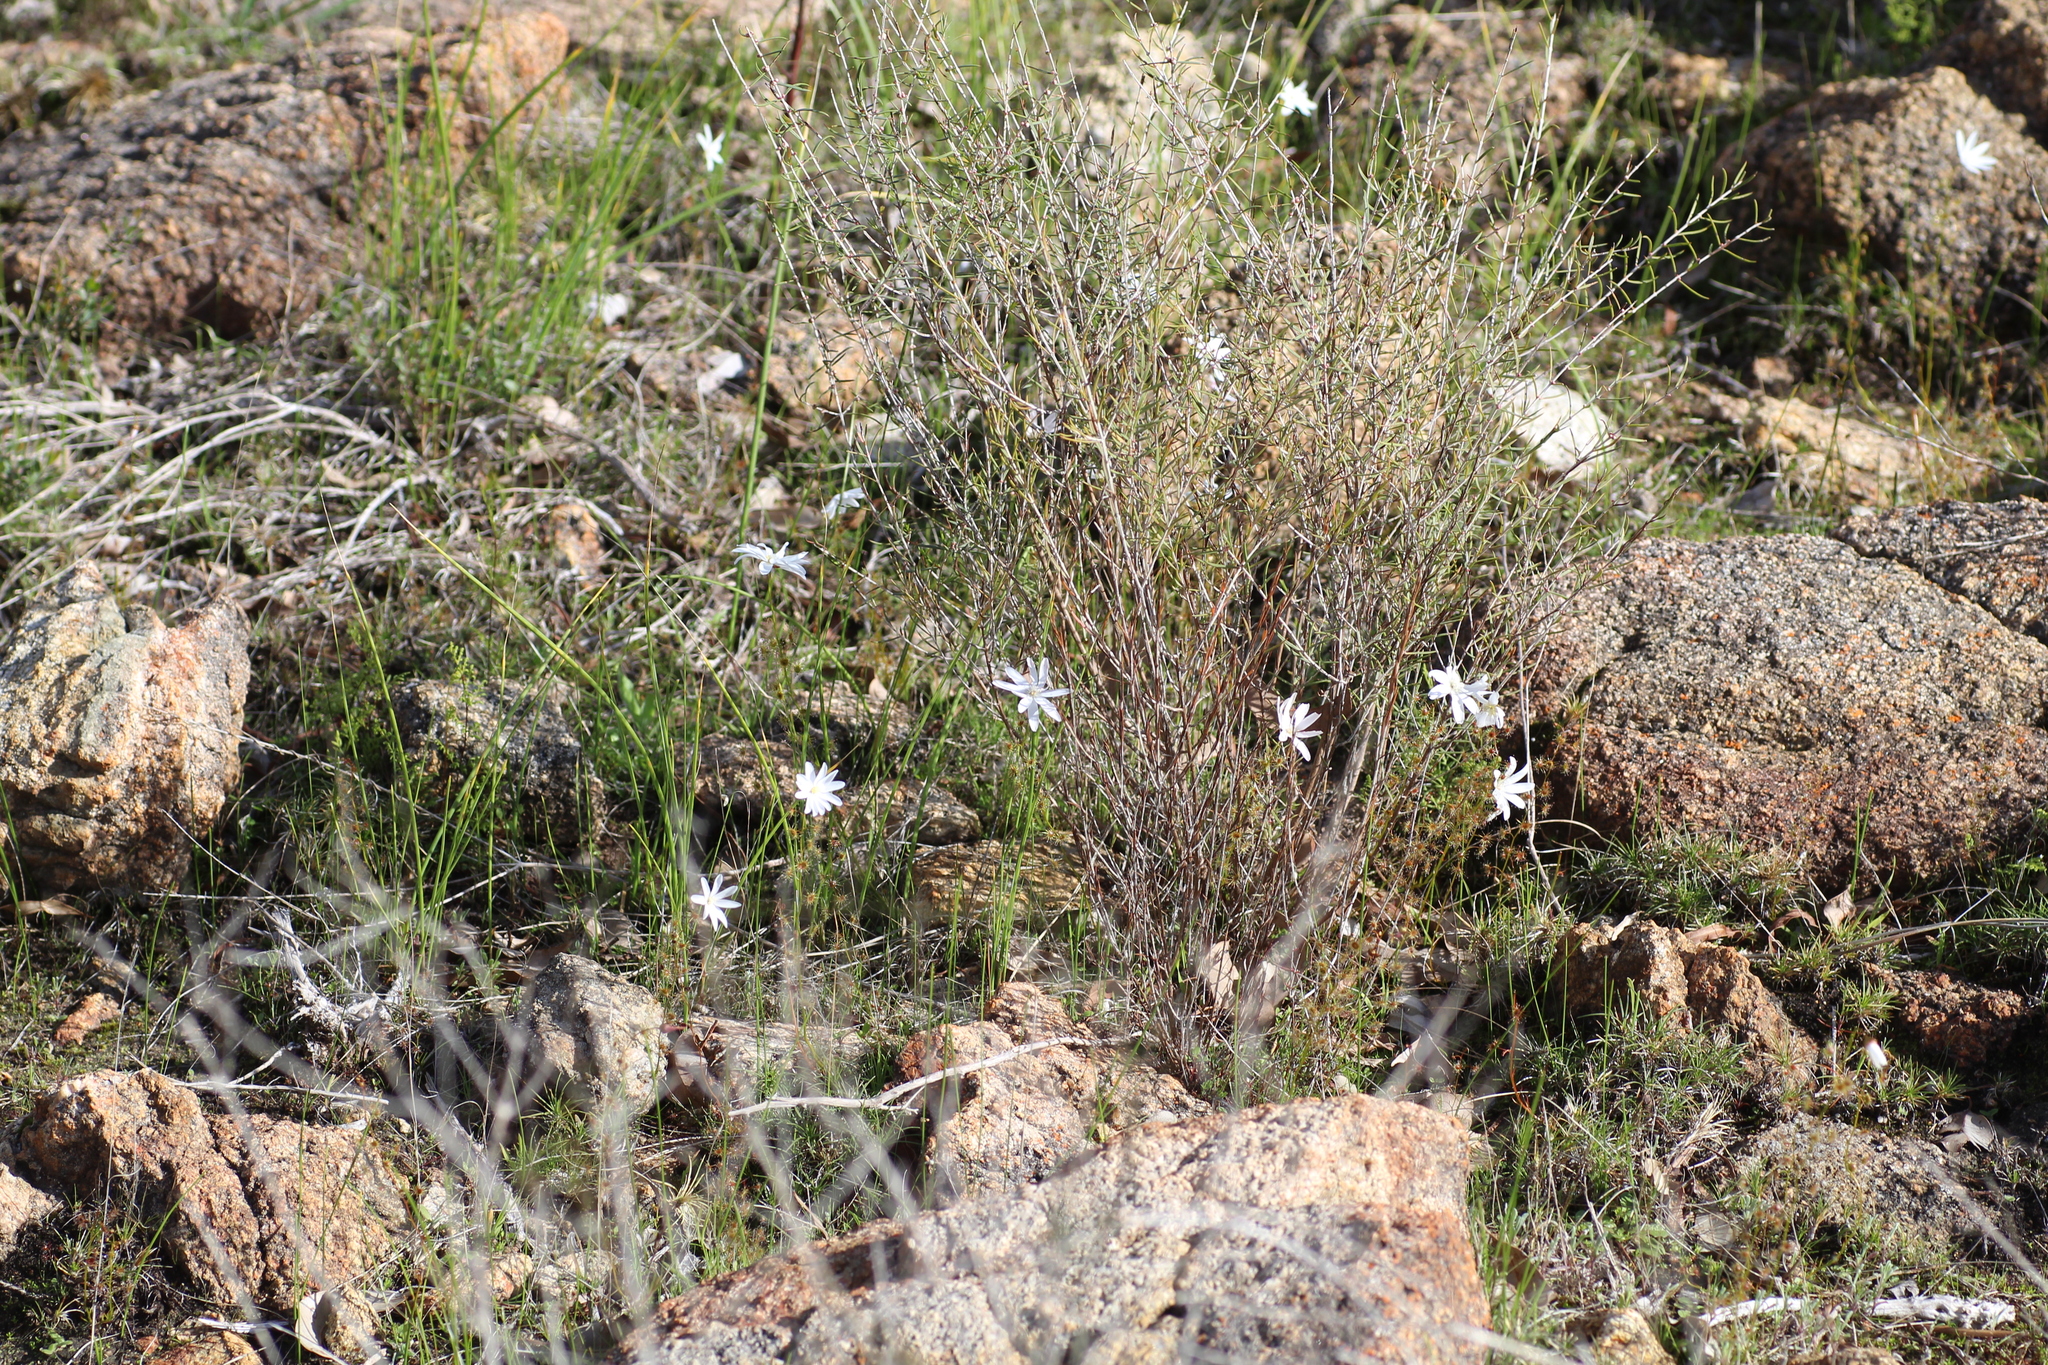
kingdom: Plantae
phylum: Tracheophyta
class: Magnoliopsida
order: Caryophyllales
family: Droseraceae
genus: Drosera
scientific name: Drosera heterophylla
